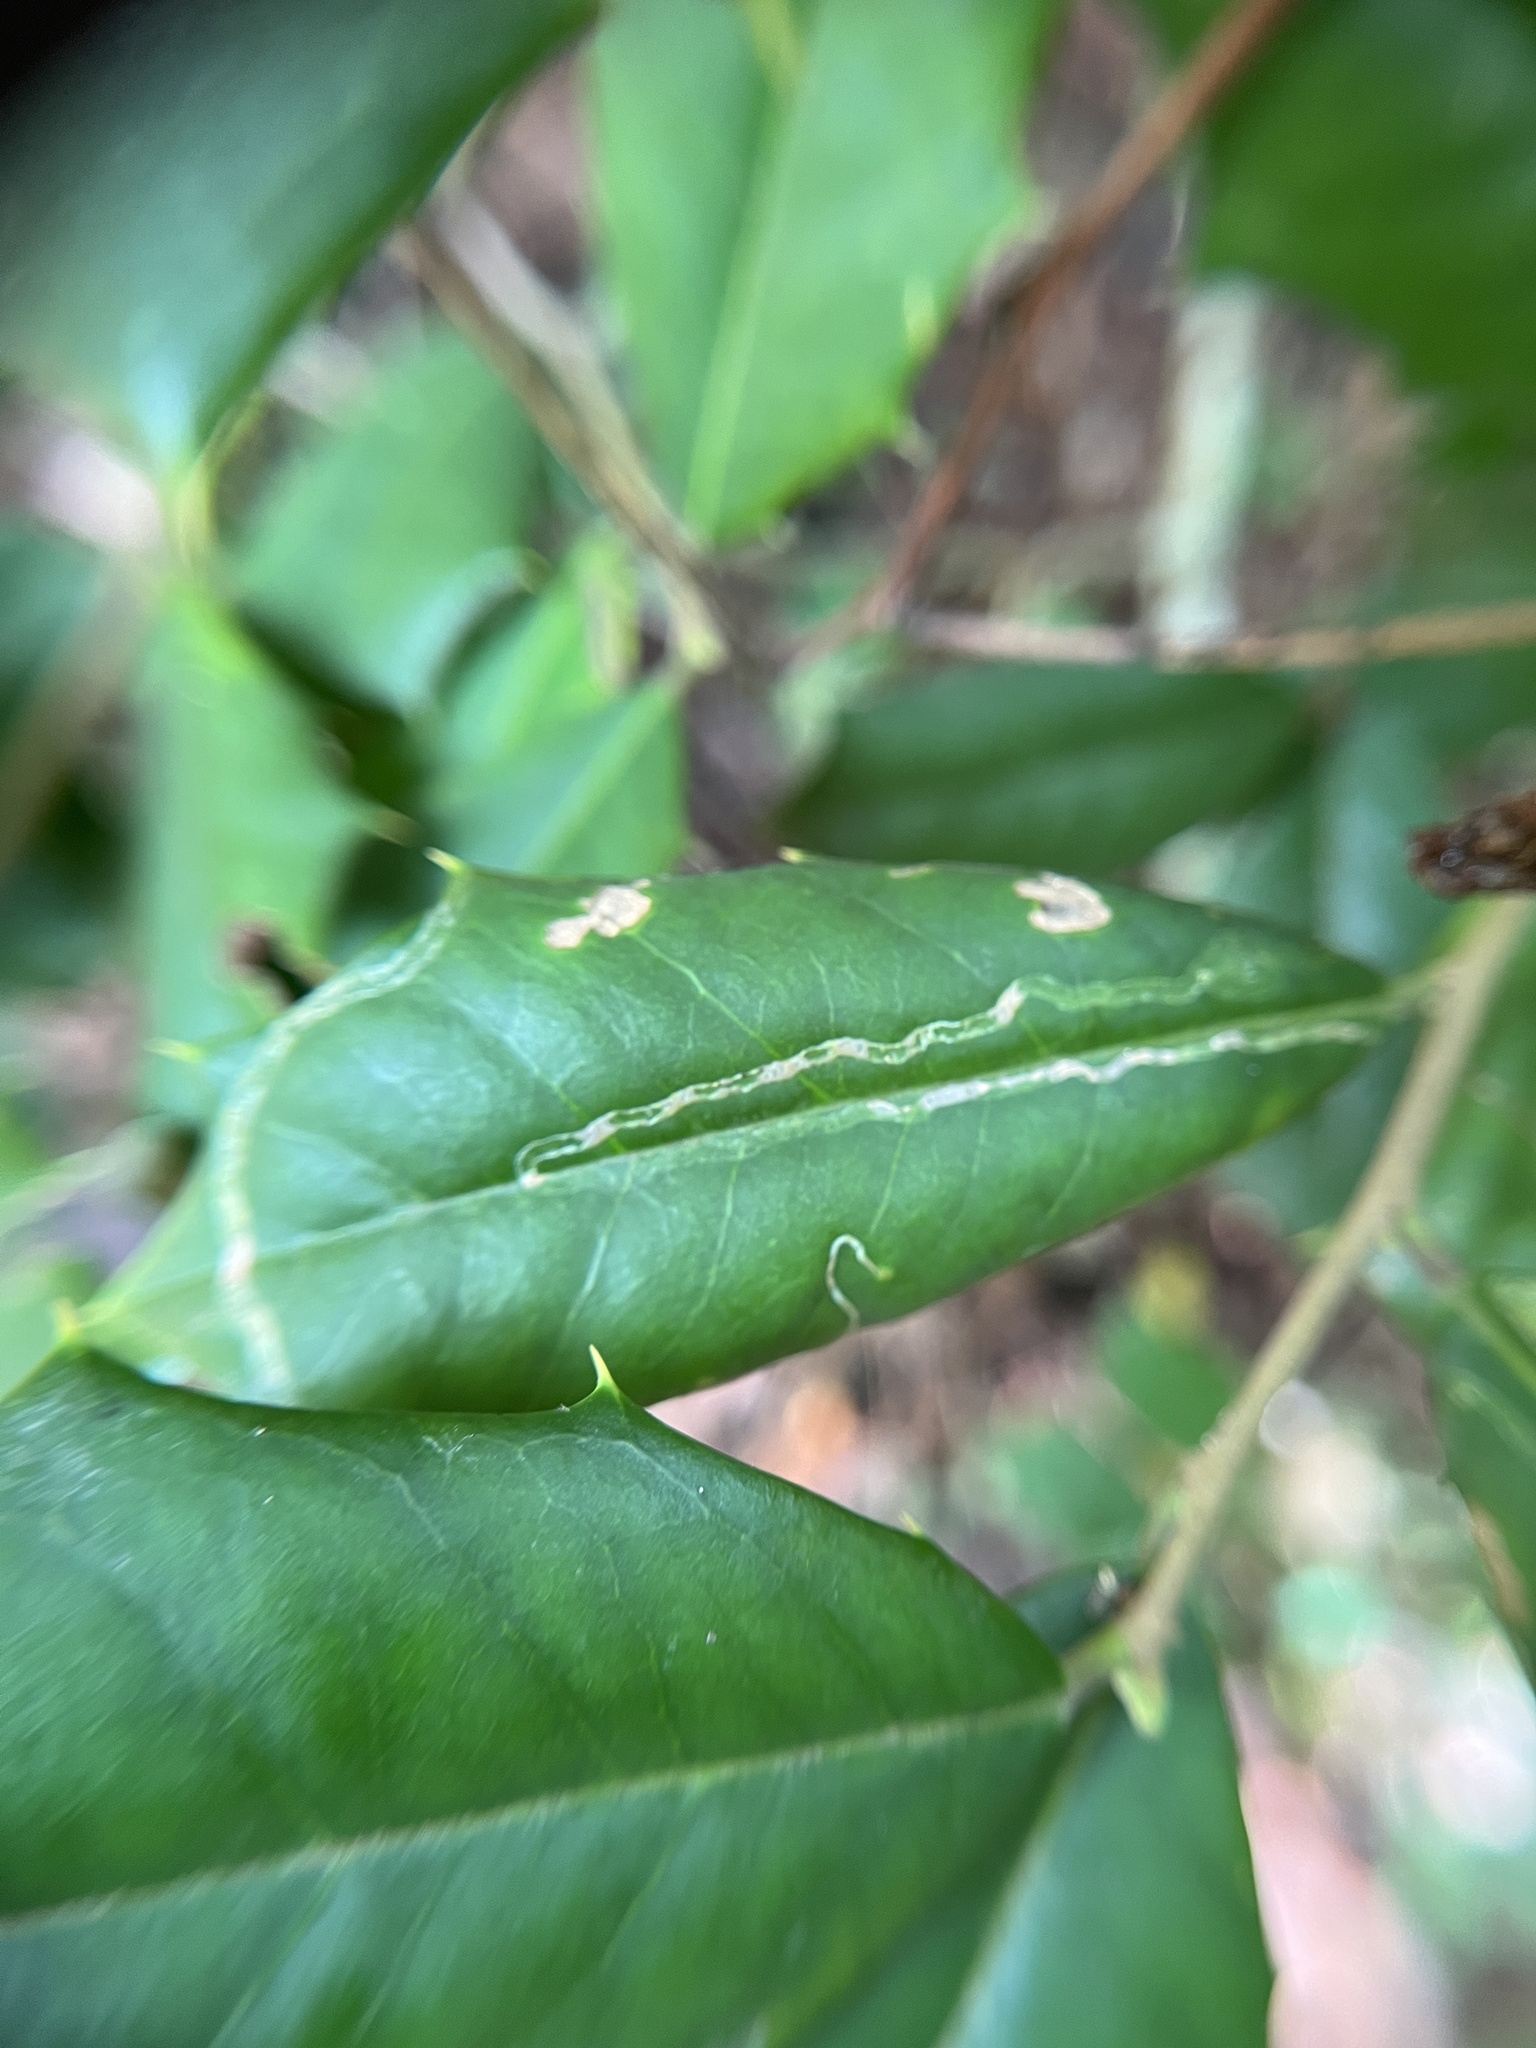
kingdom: Animalia
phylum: Arthropoda
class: Insecta
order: Diptera
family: Agromyzidae
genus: Phytomyza
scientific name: Phytomyza opacae
